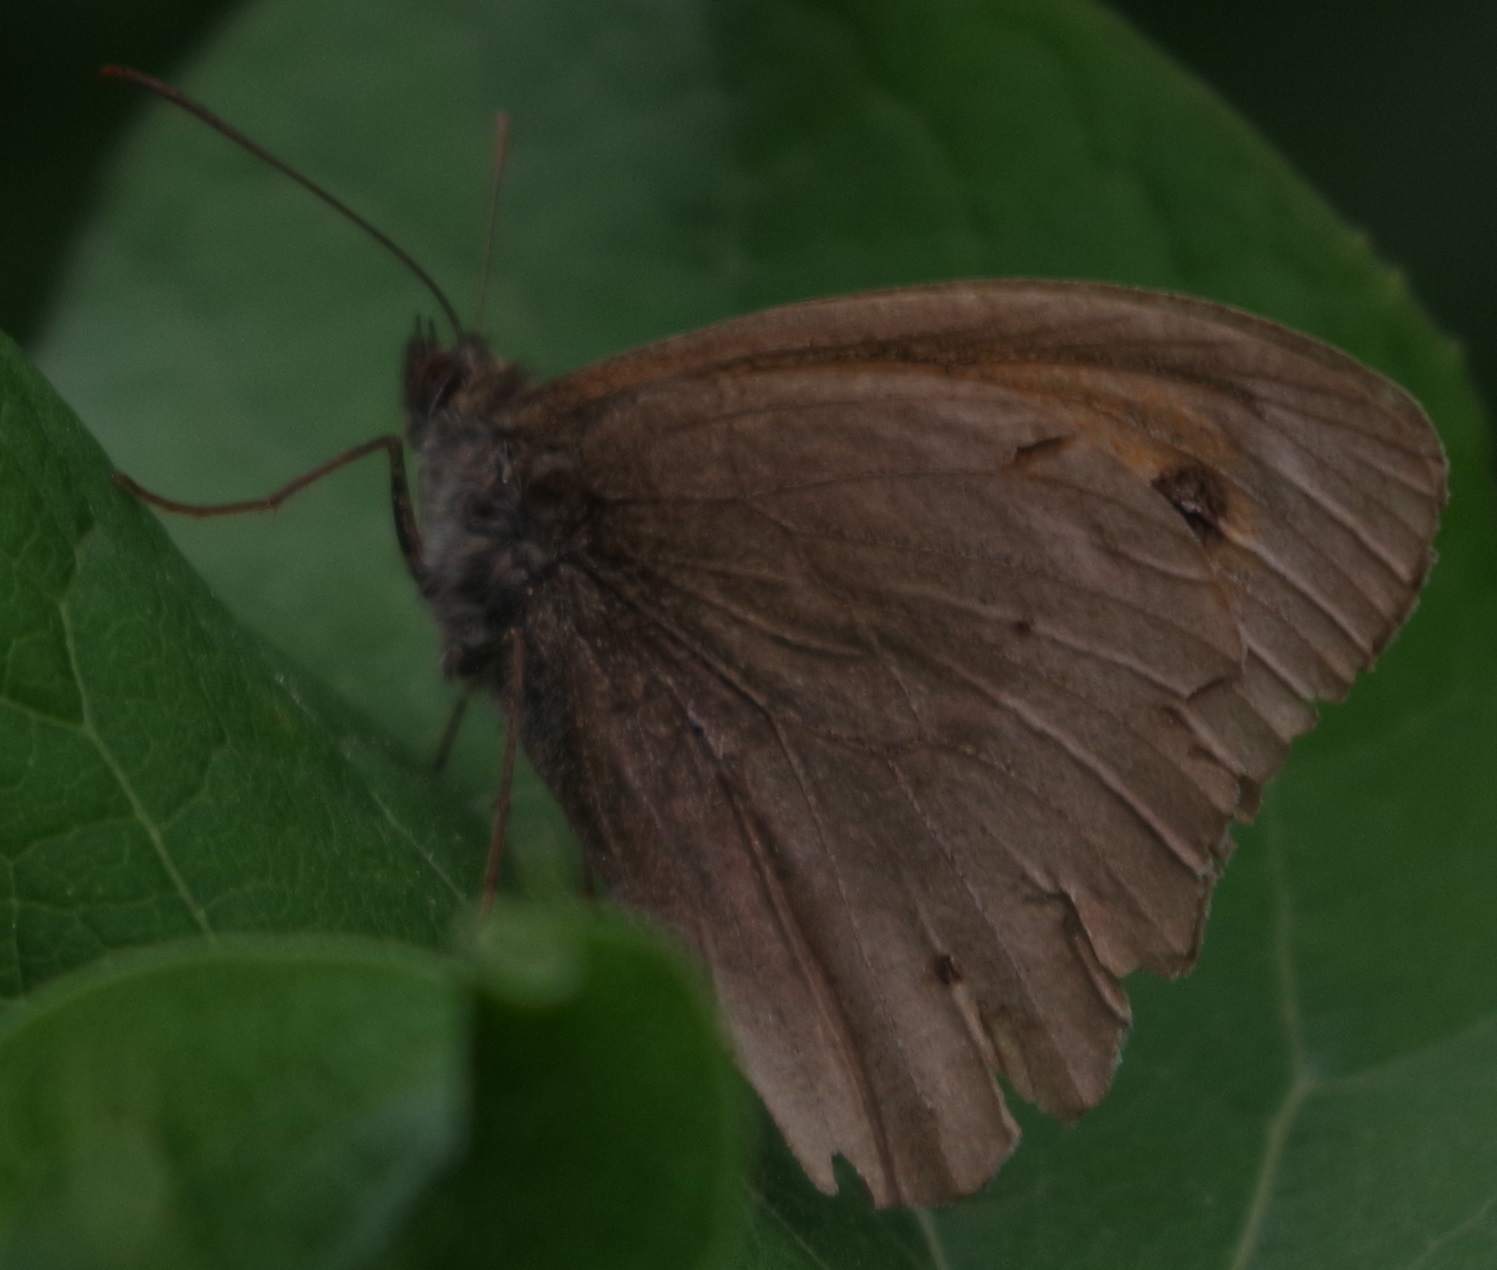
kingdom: Animalia
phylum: Arthropoda
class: Insecta
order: Lepidoptera
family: Nymphalidae
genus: Maniola
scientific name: Maniola jurtina
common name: Meadow brown
